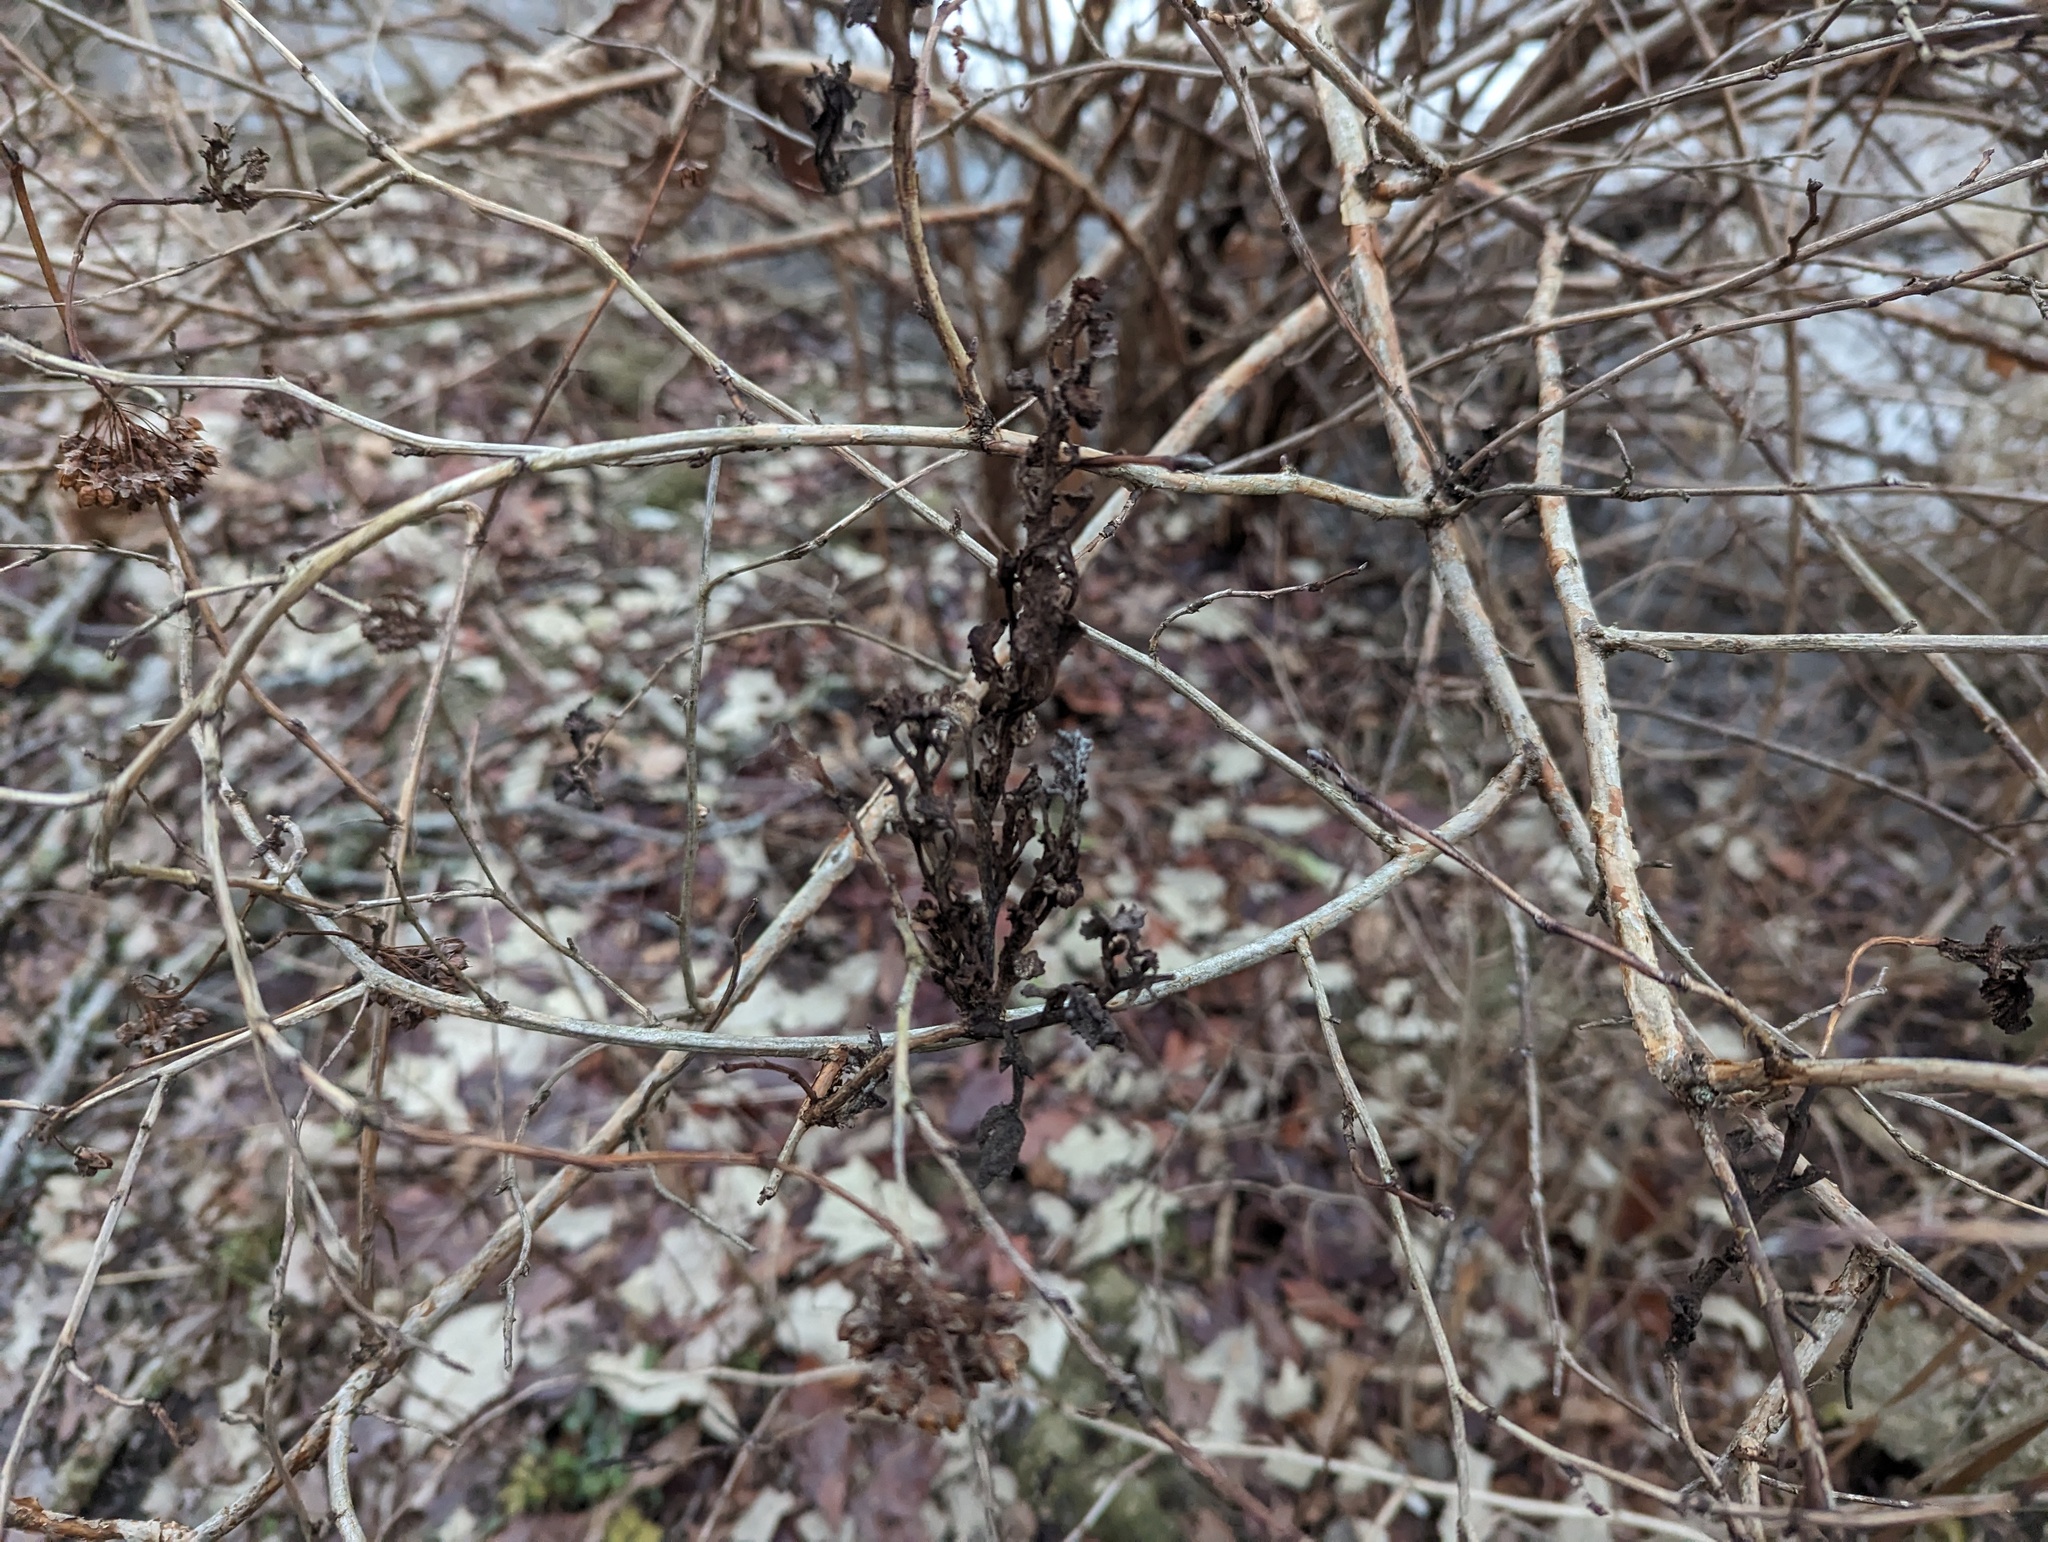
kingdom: Fungi
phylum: Ascomycota
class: Leotiomycetes
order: Helotiales
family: Erysiphaceae
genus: Podosphaera
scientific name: Podosphaera physocarpi
